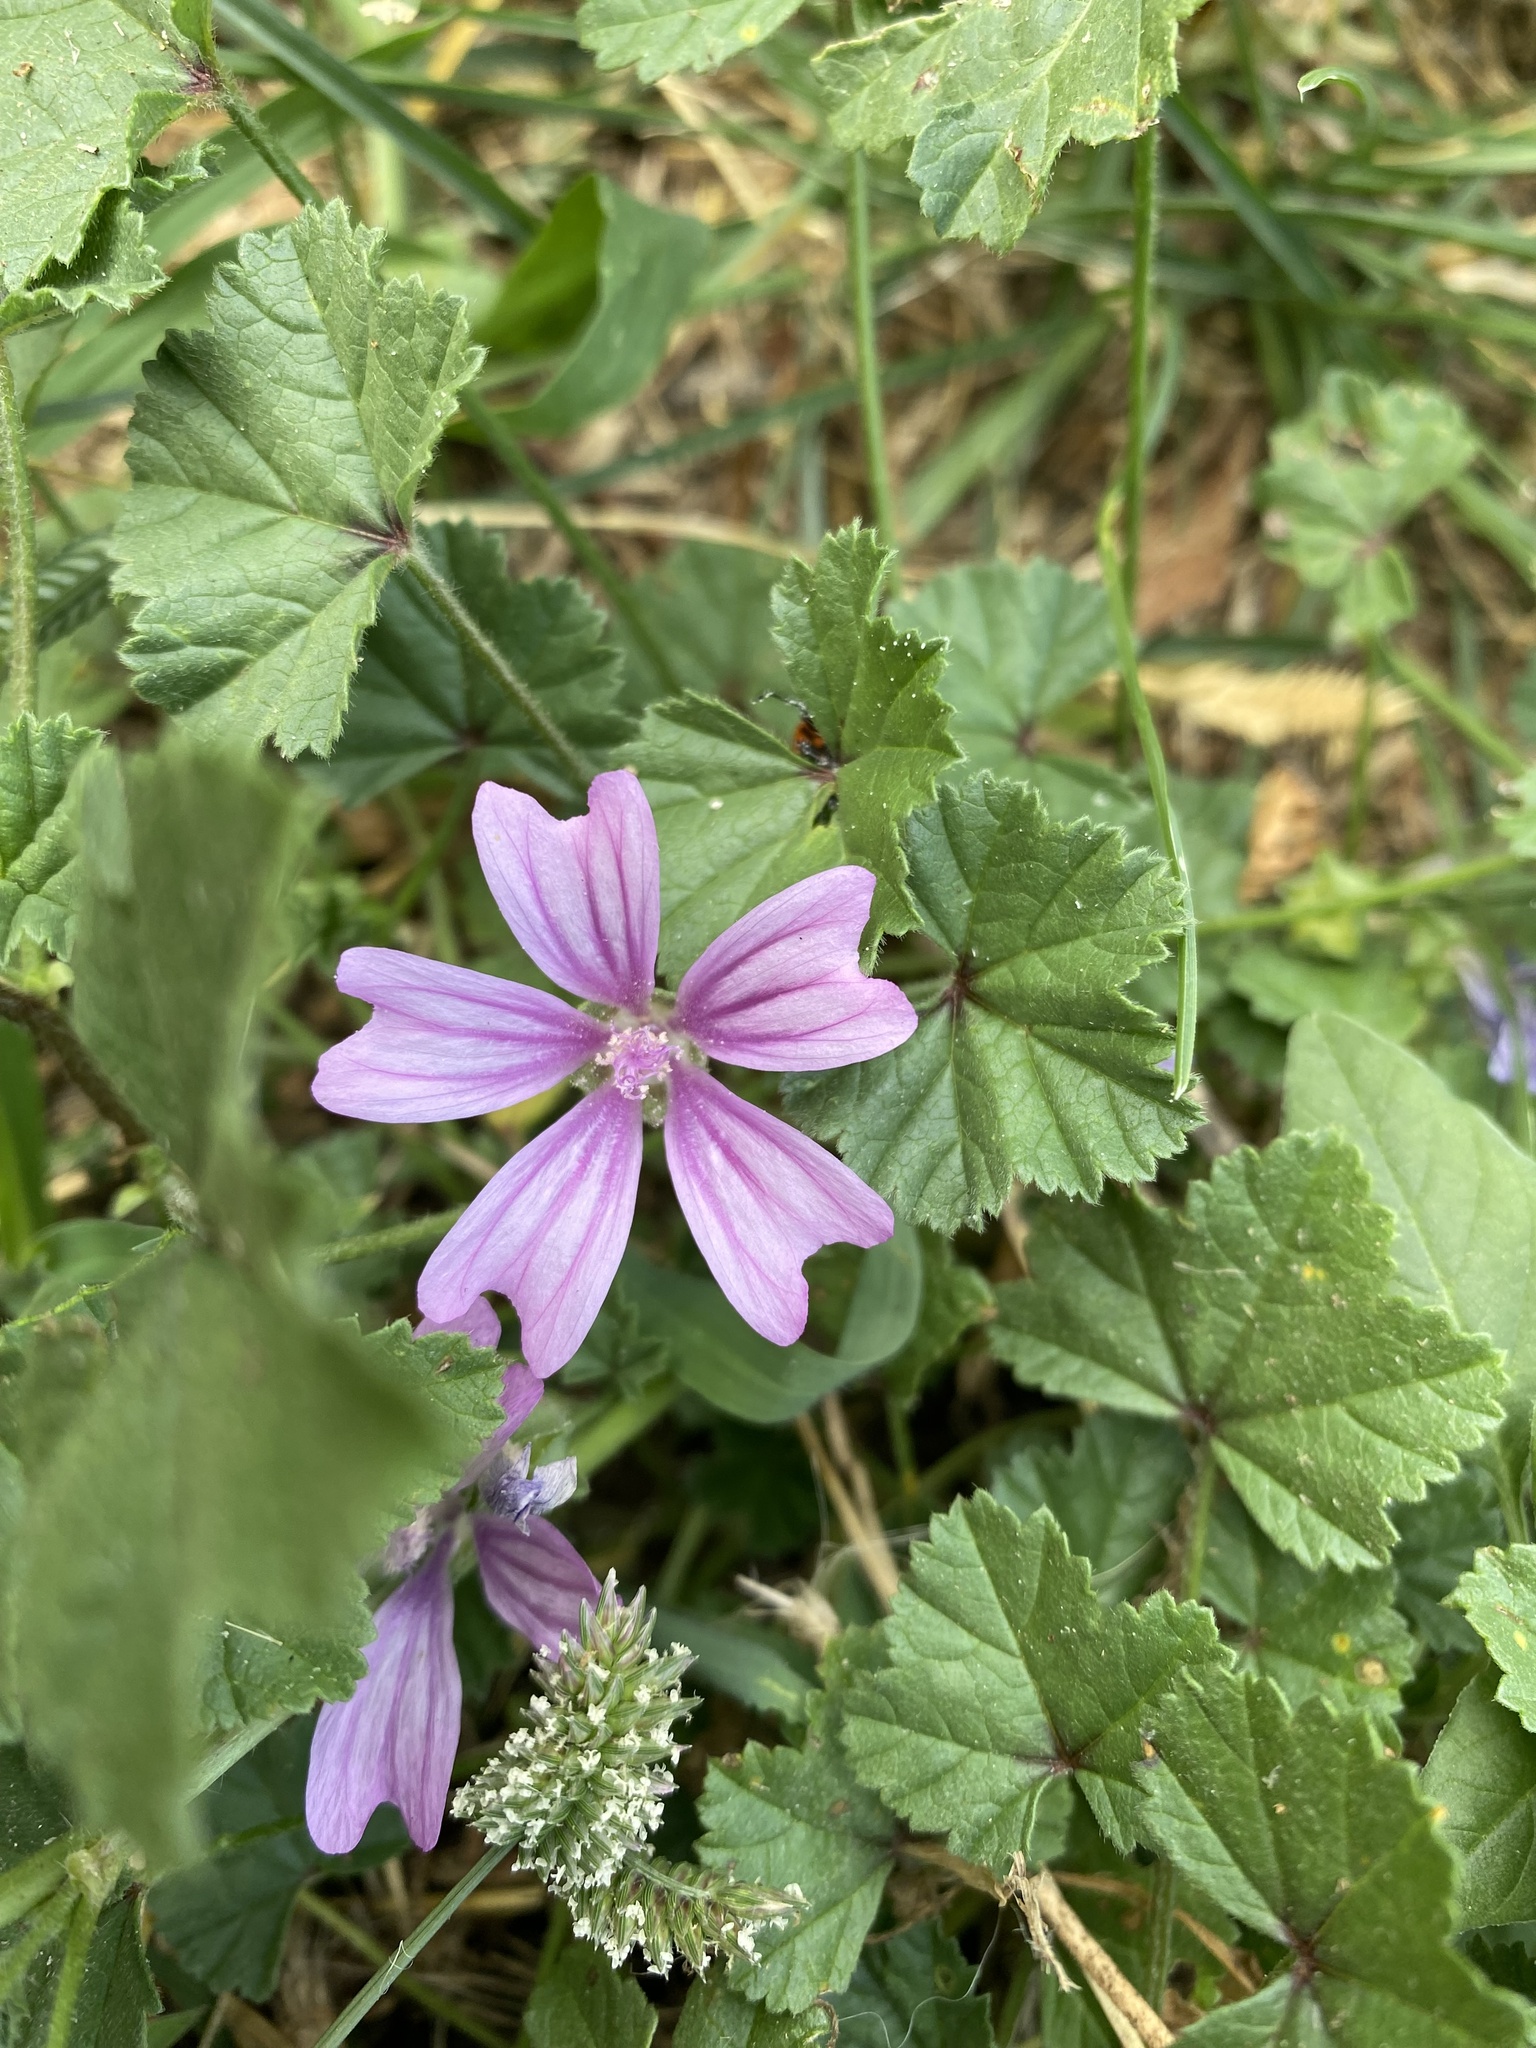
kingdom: Plantae
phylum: Tracheophyta
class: Magnoliopsida
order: Malvales
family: Malvaceae
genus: Malva
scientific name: Malva sylvestris
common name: Common mallow
